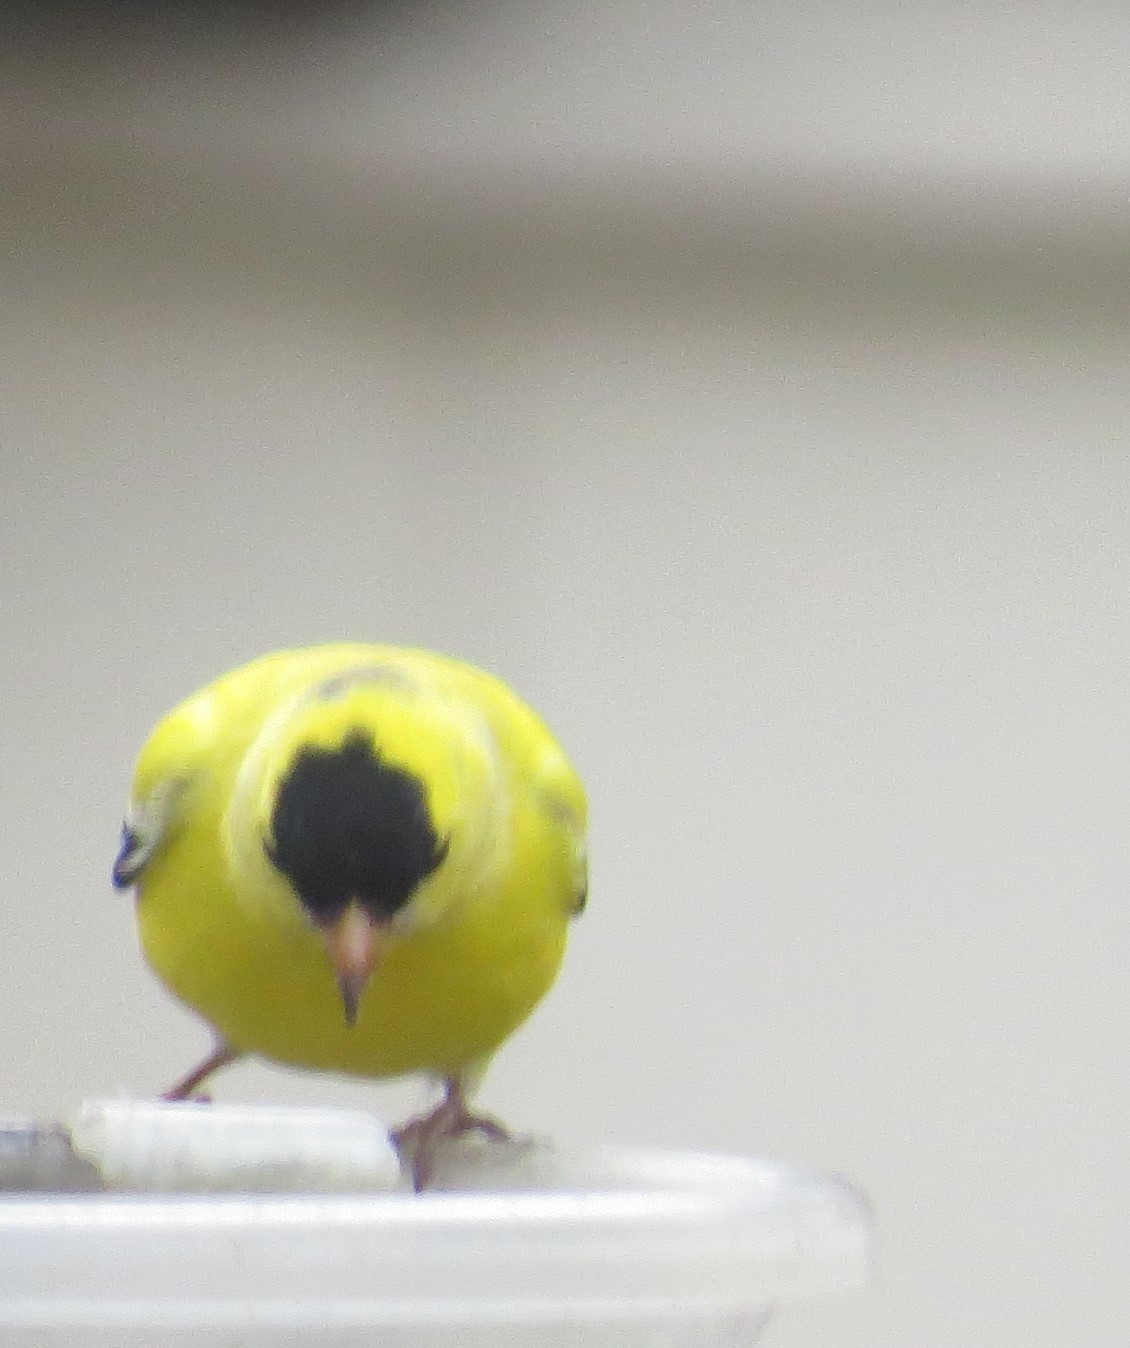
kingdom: Animalia
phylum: Chordata
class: Aves
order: Passeriformes
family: Fringillidae
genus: Spinus
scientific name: Spinus tristis
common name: American goldfinch
